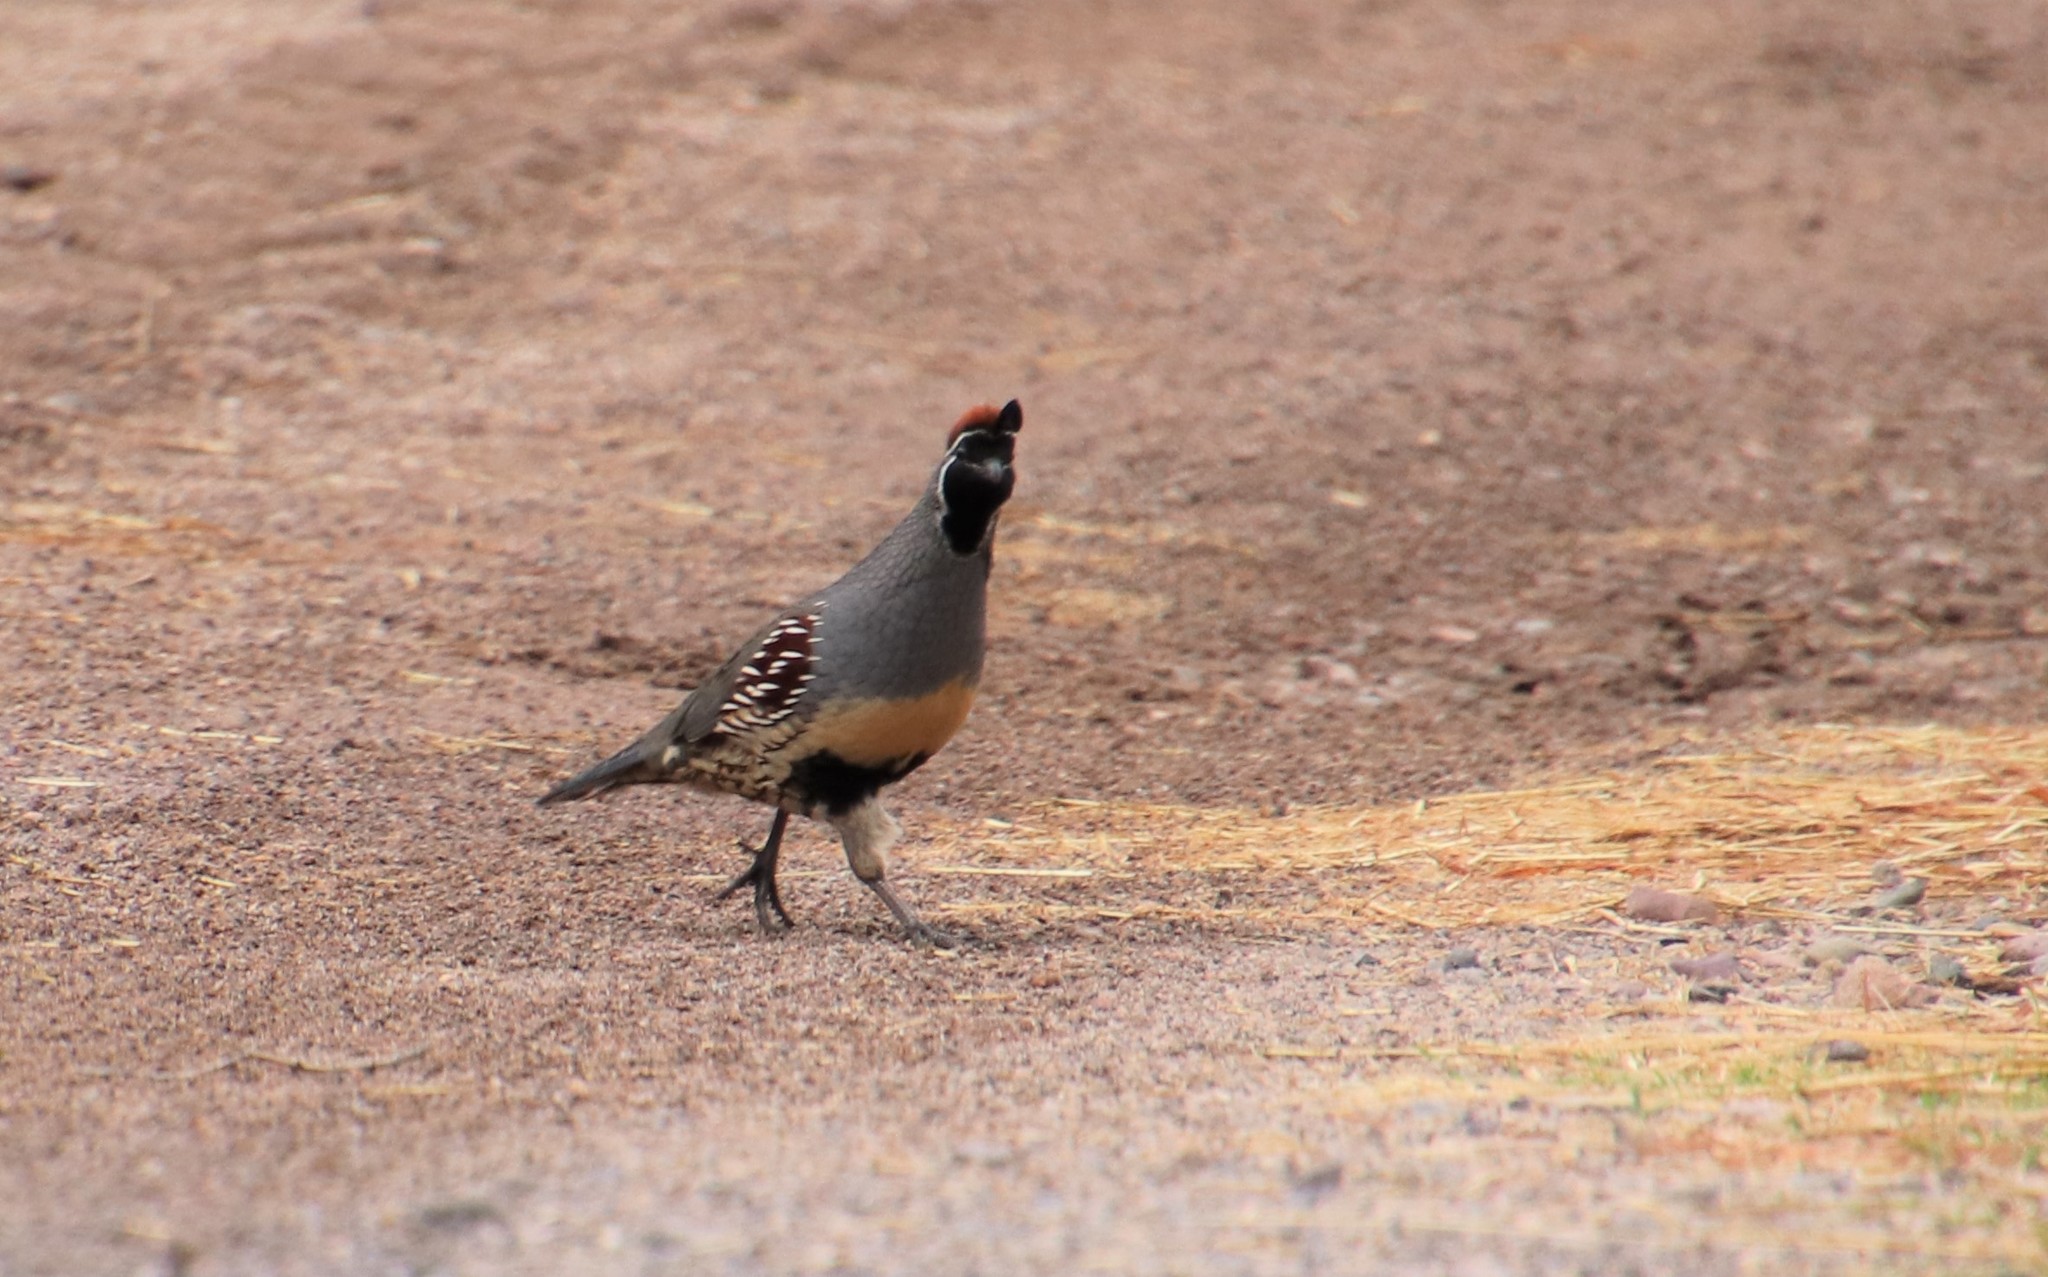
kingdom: Animalia
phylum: Chordata
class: Aves
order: Galliformes
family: Odontophoridae
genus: Callipepla
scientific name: Callipepla gambelii
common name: Gambel's quail
